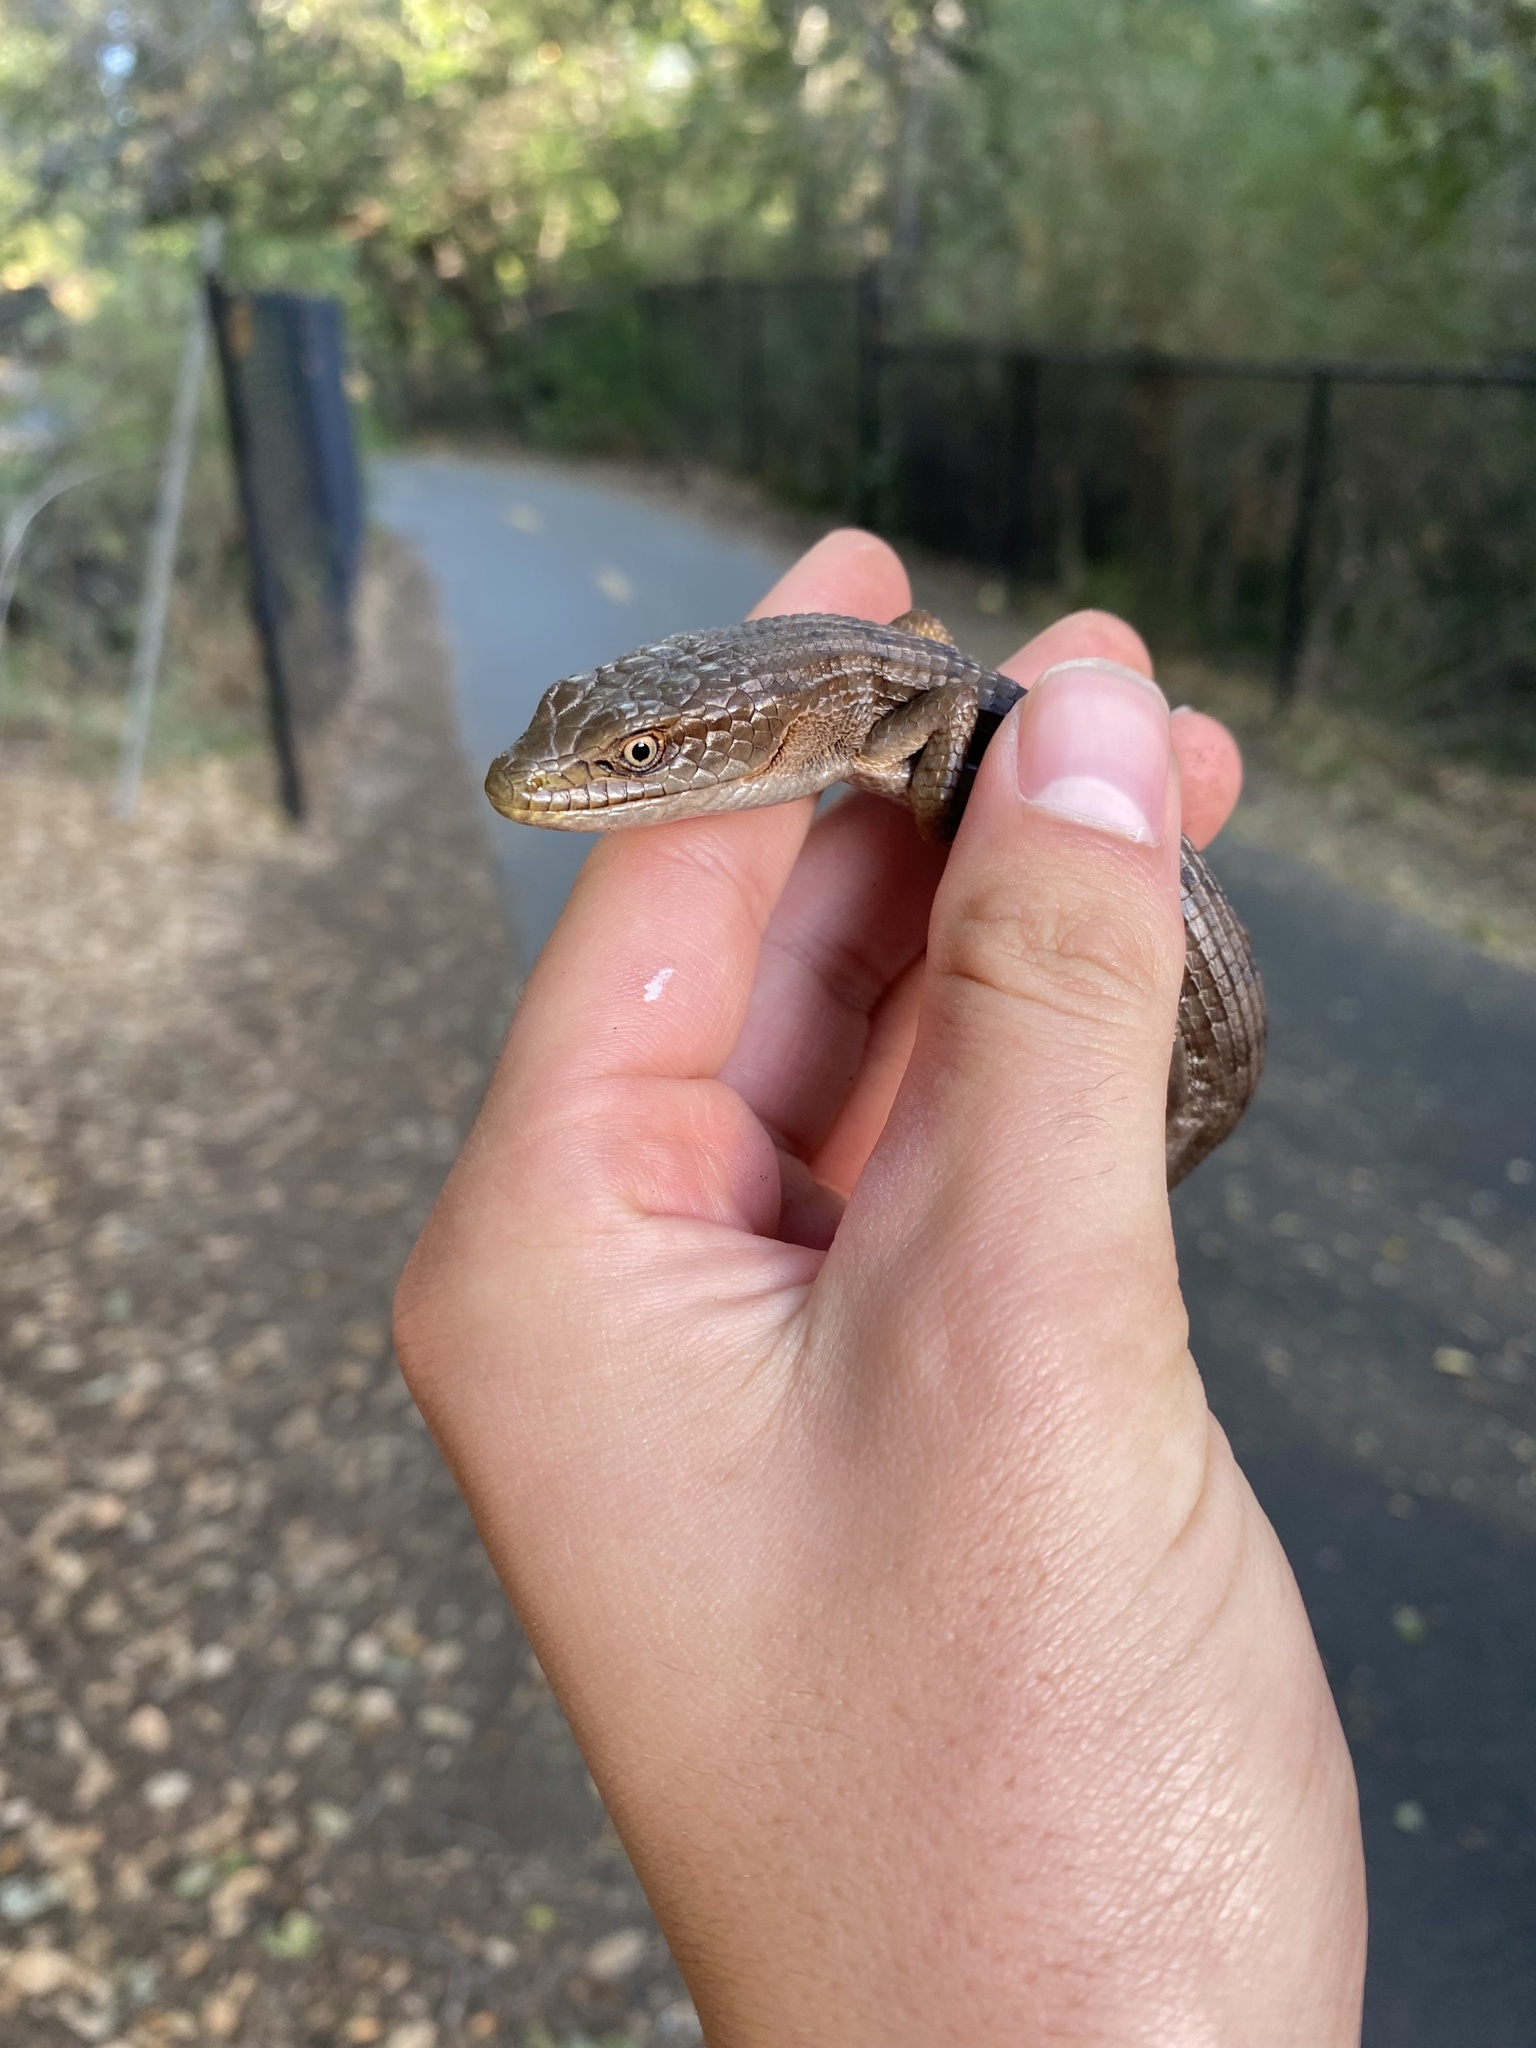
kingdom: Animalia
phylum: Chordata
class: Squamata
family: Anguidae
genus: Elgaria
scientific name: Elgaria multicarinata
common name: Southern alligator lizard
